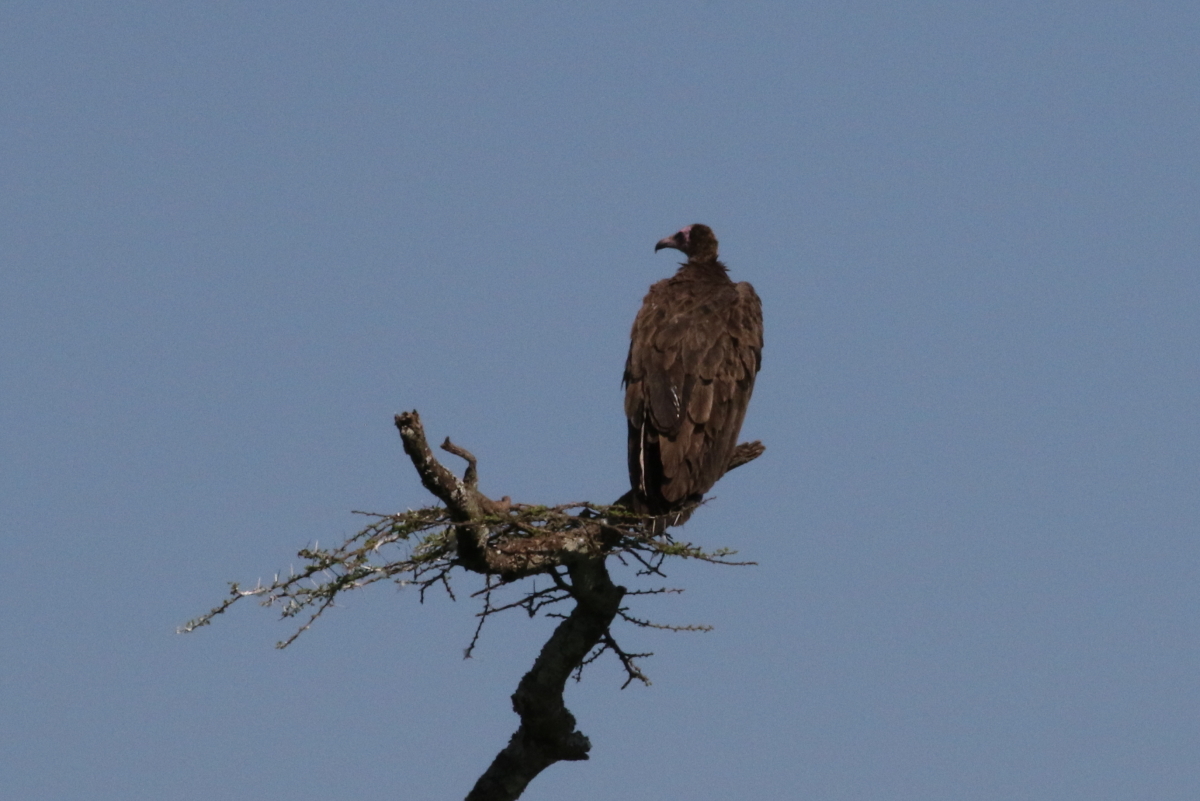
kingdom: Animalia
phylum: Chordata
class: Aves
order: Accipitriformes
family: Accipitridae
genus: Necrosyrtes
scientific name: Necrosyrtes monachus
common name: Hooded vulture
